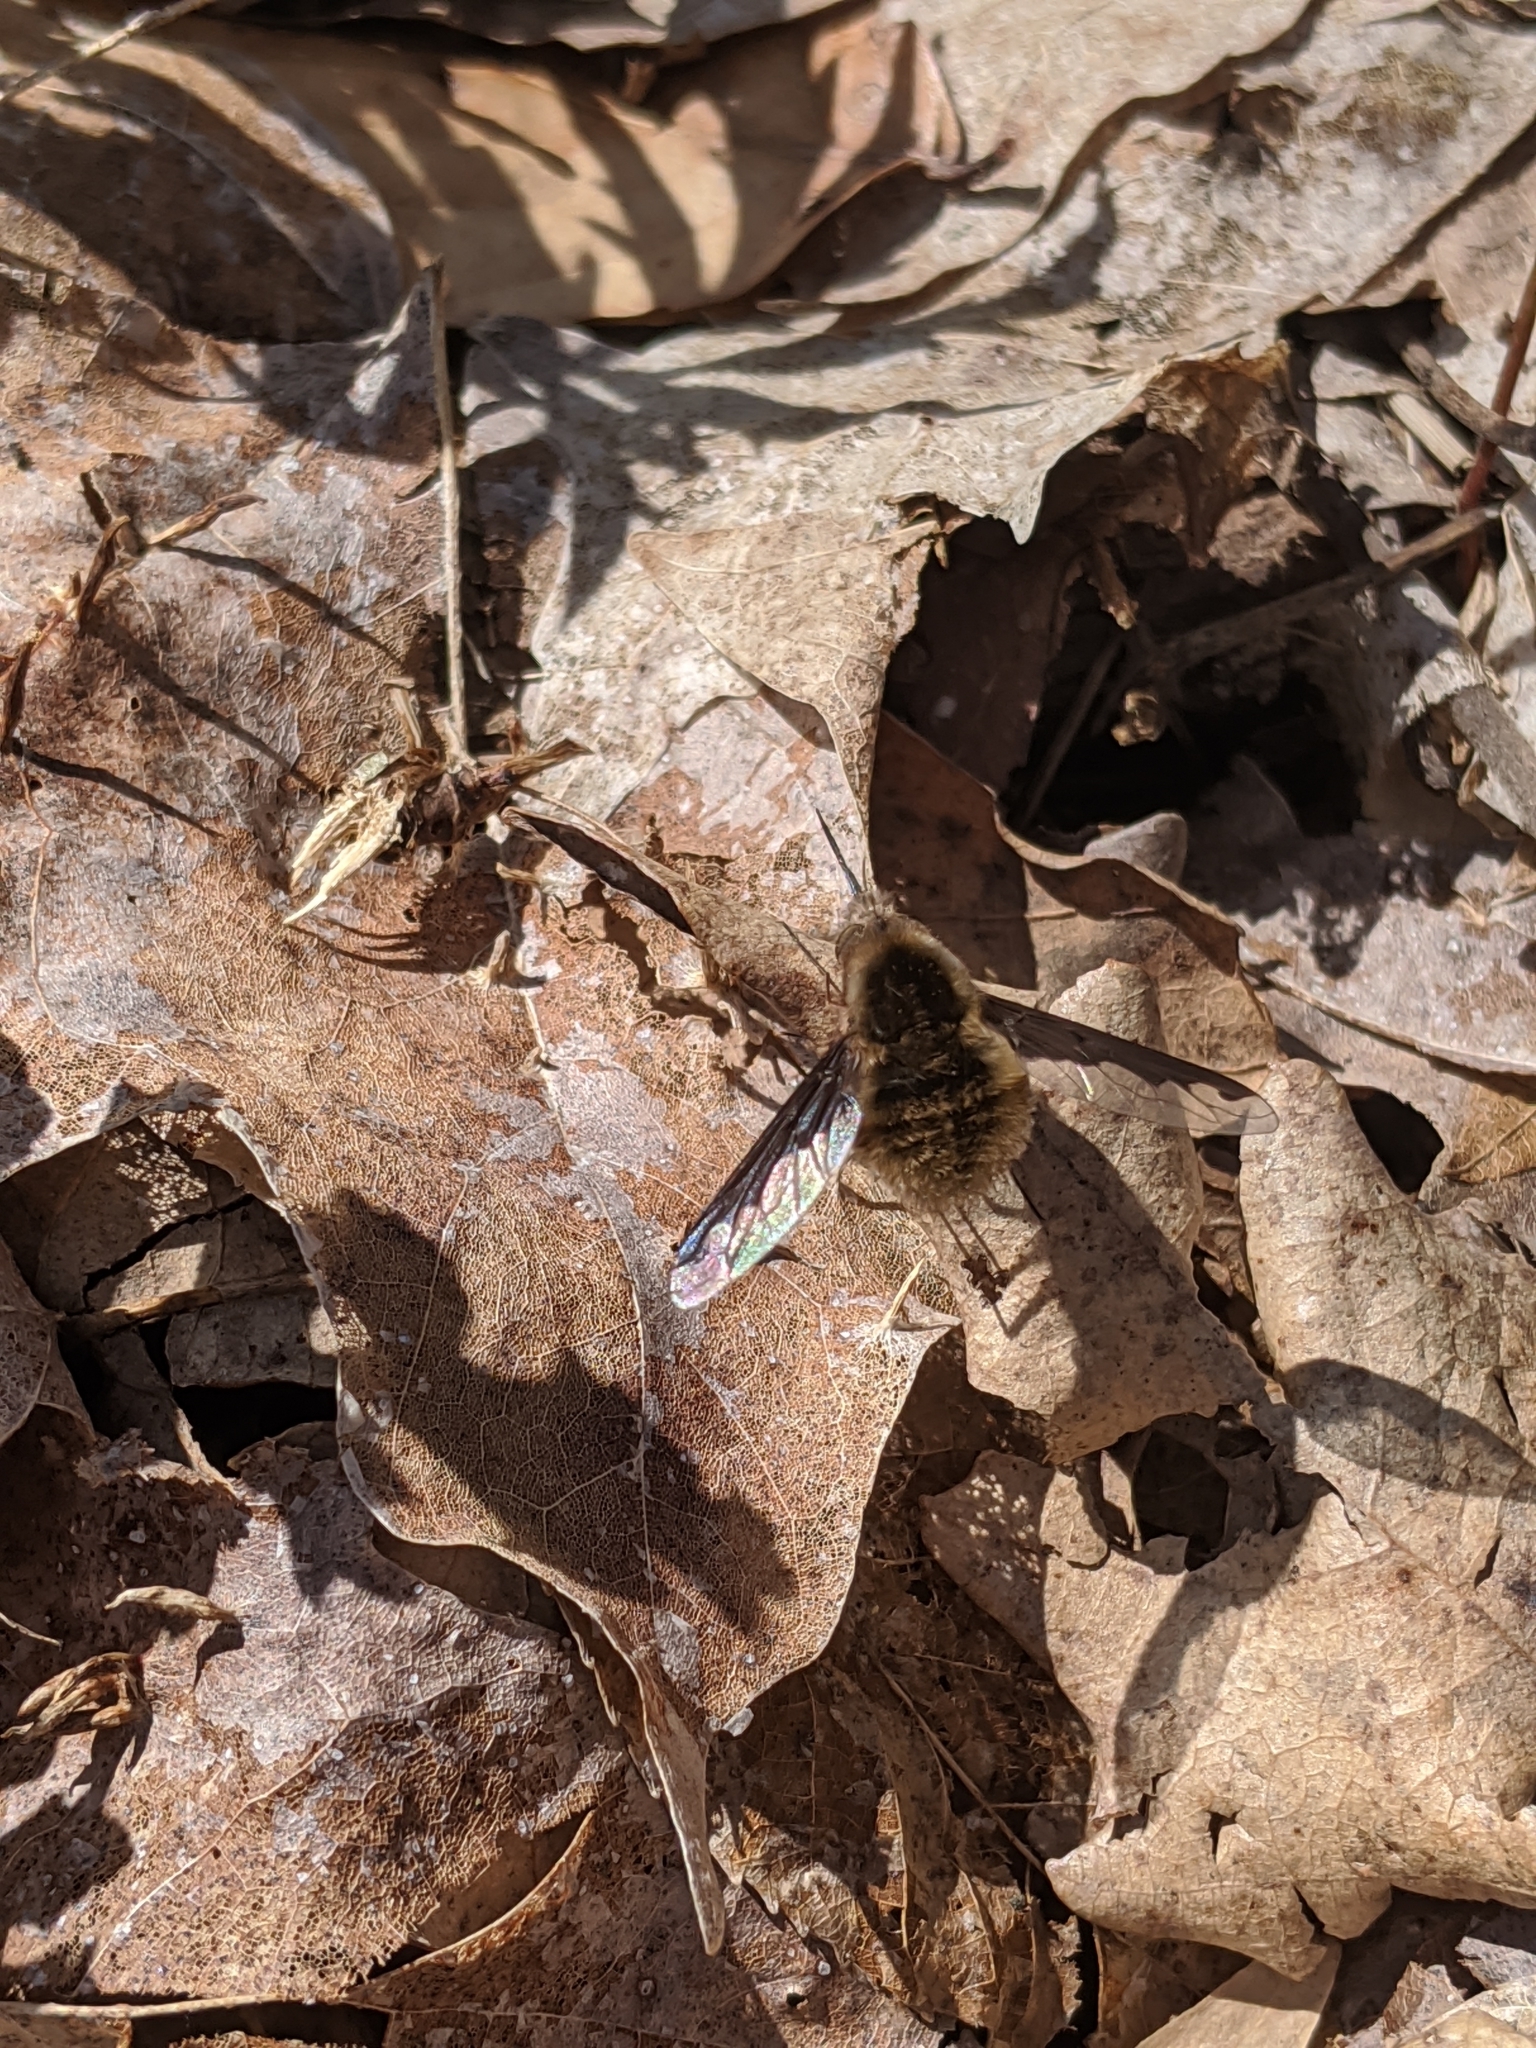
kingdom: Animalia
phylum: Arthropoda
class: Insecta
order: Diptera
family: Bombyliidae
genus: Bombylius
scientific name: Bombylius major
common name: Bee fly
